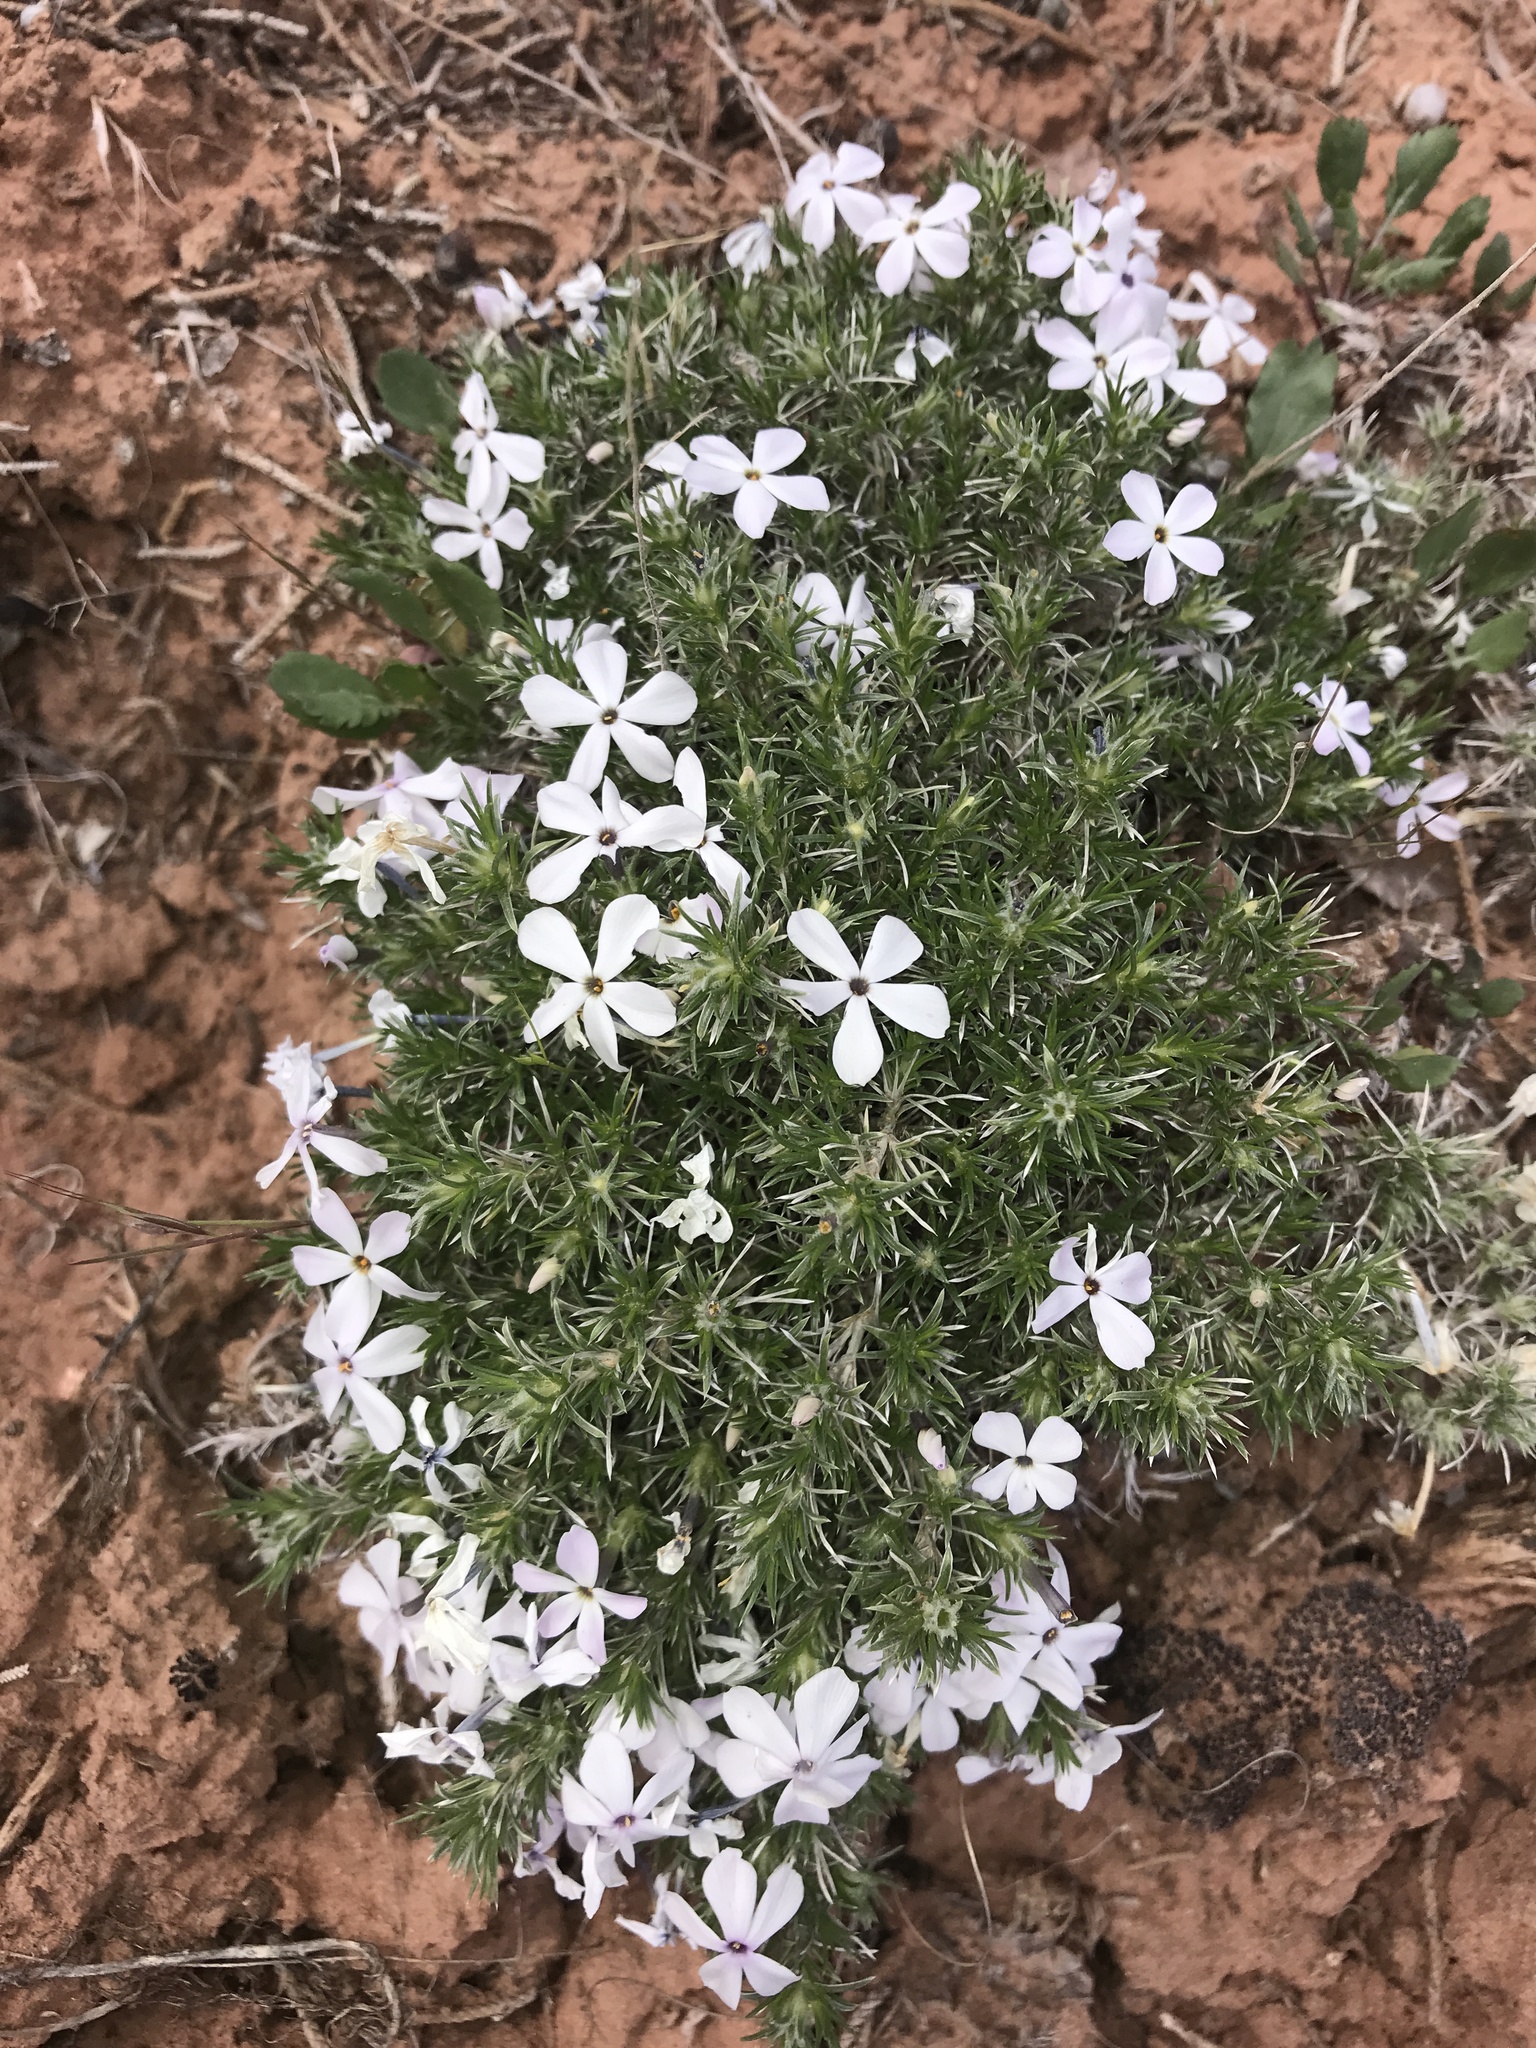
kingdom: Plantae
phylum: Tracheophyta
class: Magnoliopsida
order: Ericales
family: Polemoniaceae
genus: Phlox
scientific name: Phlox hoodii
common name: Moss phlox
